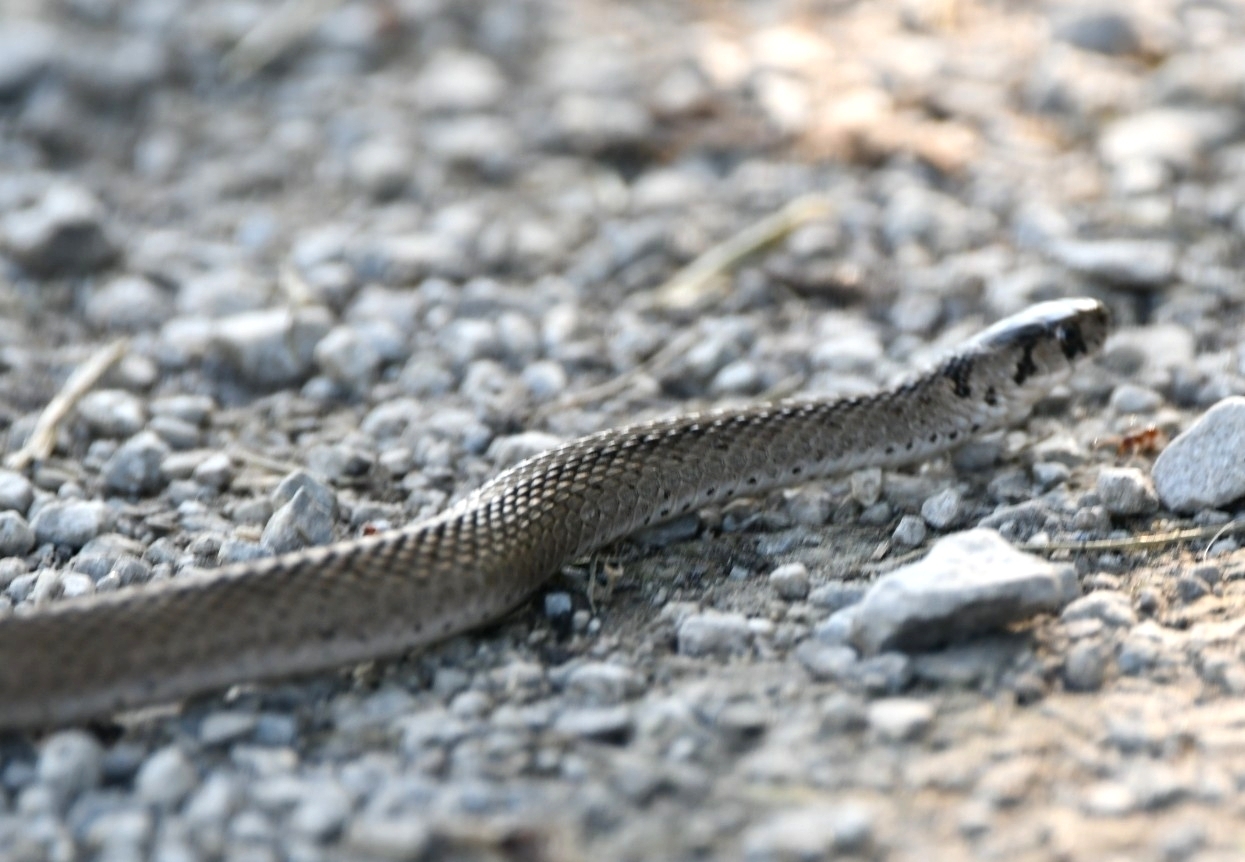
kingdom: Animalia
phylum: Chordata
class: Squamata
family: Colubridae
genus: Storeria
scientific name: Storeria dekayi
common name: (dekay’s) brown snake
